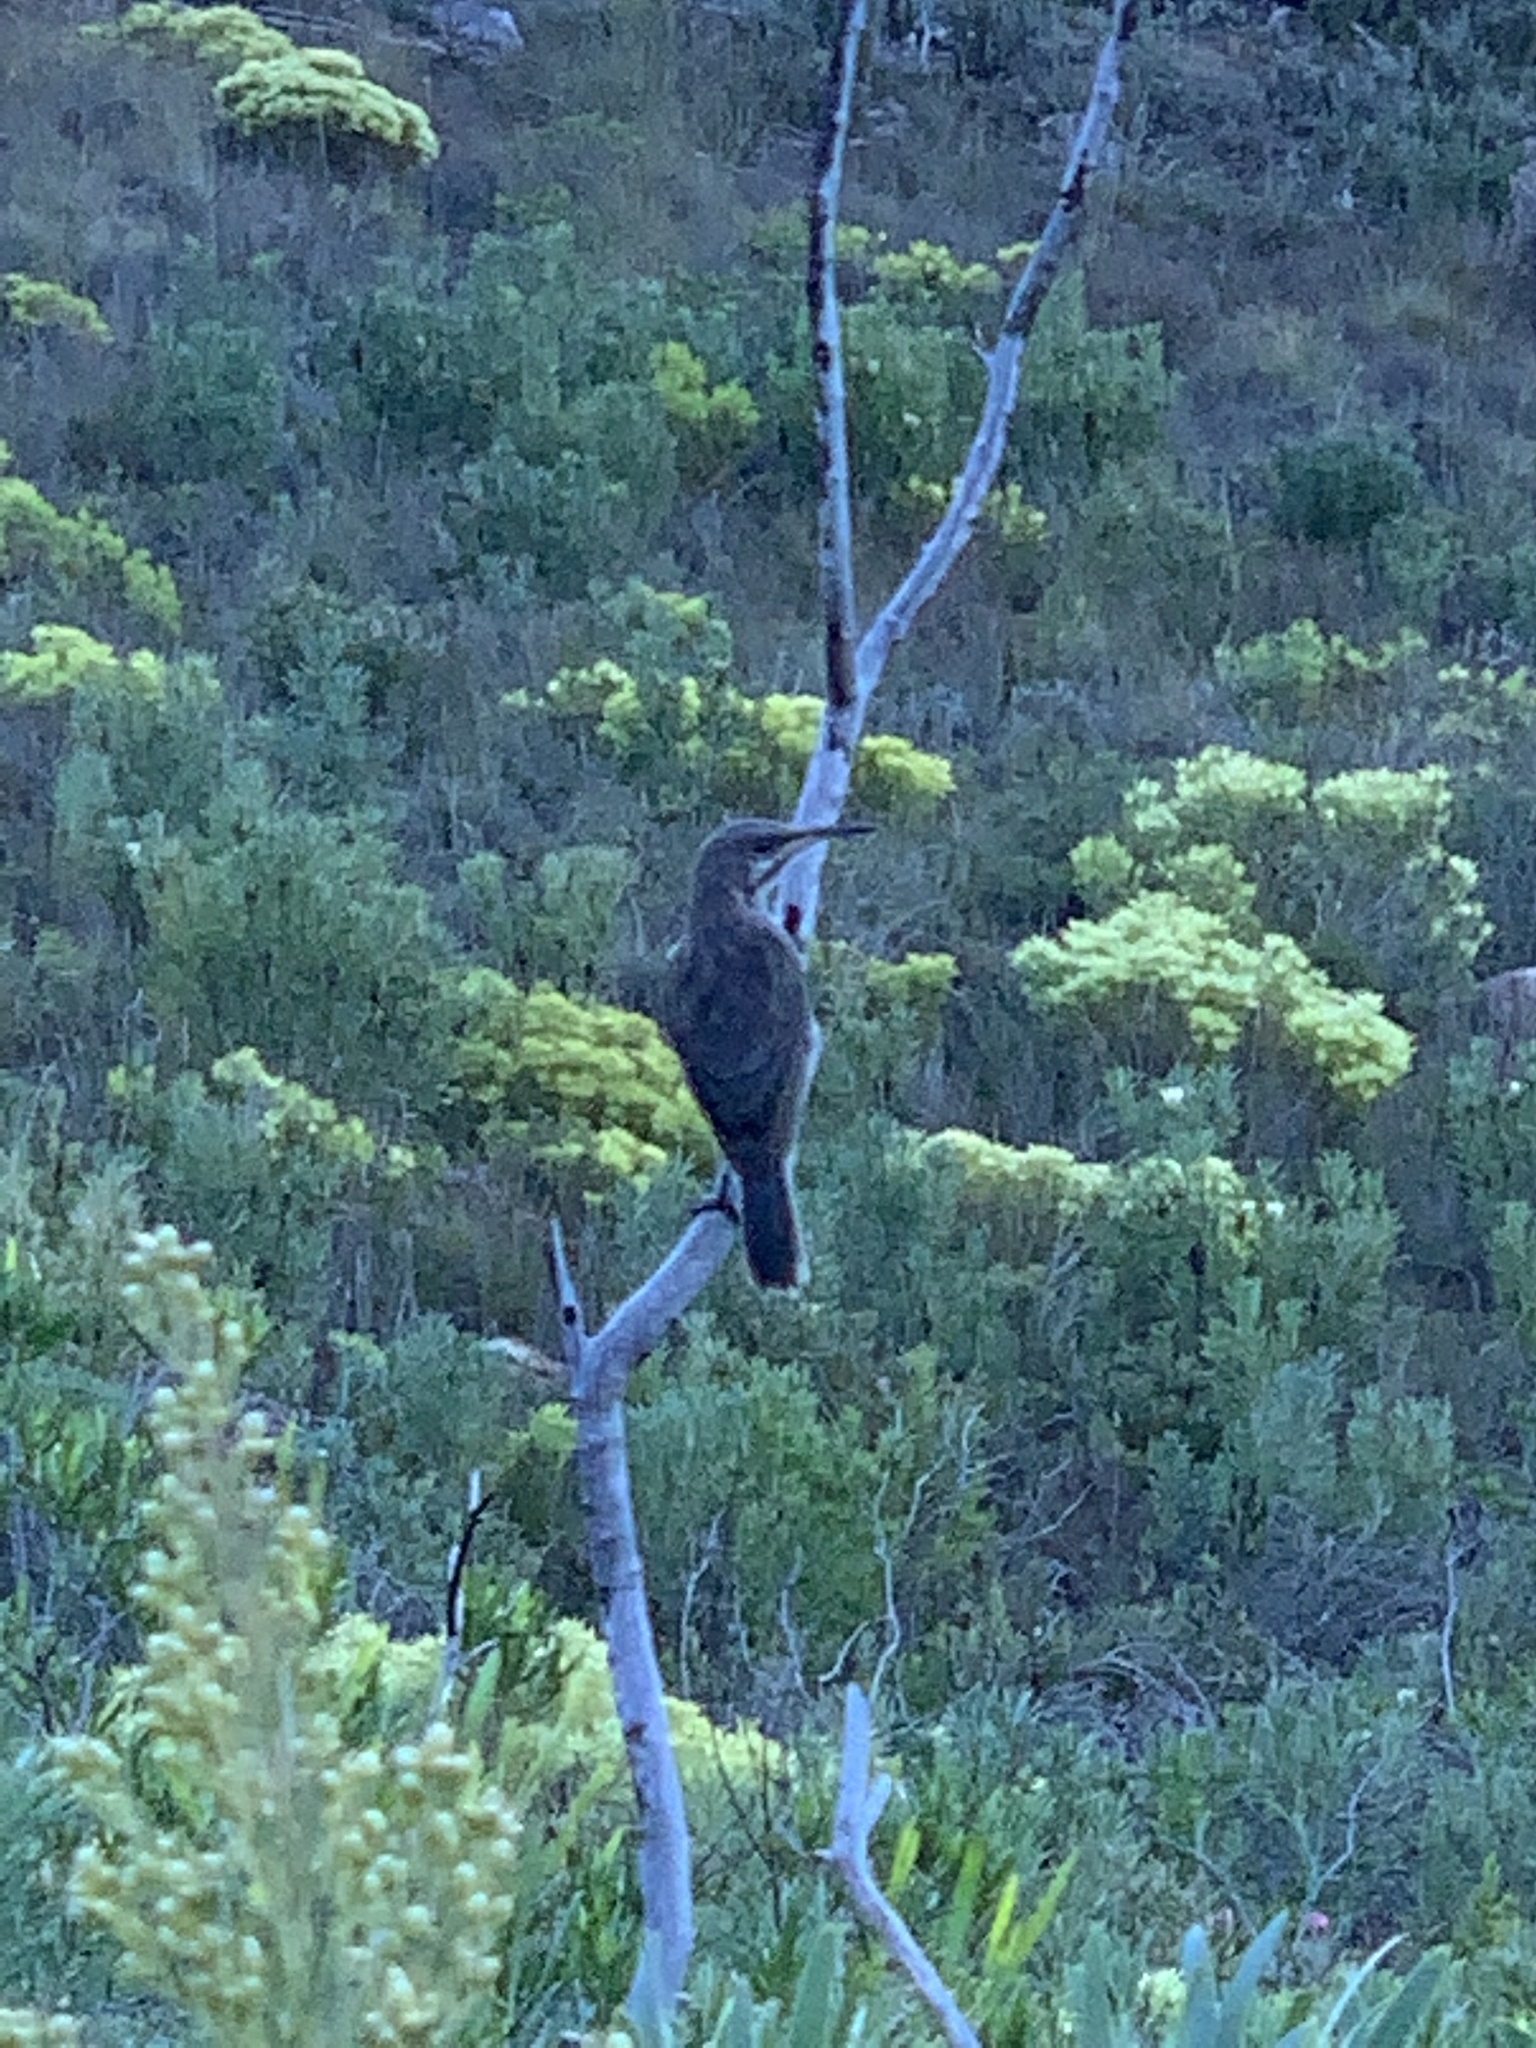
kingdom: Animalia
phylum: Chordata
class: Aves
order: Passeriformes
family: Promeropidae
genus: Promerops
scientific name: Promerops cafer
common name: Cape sugarbird
